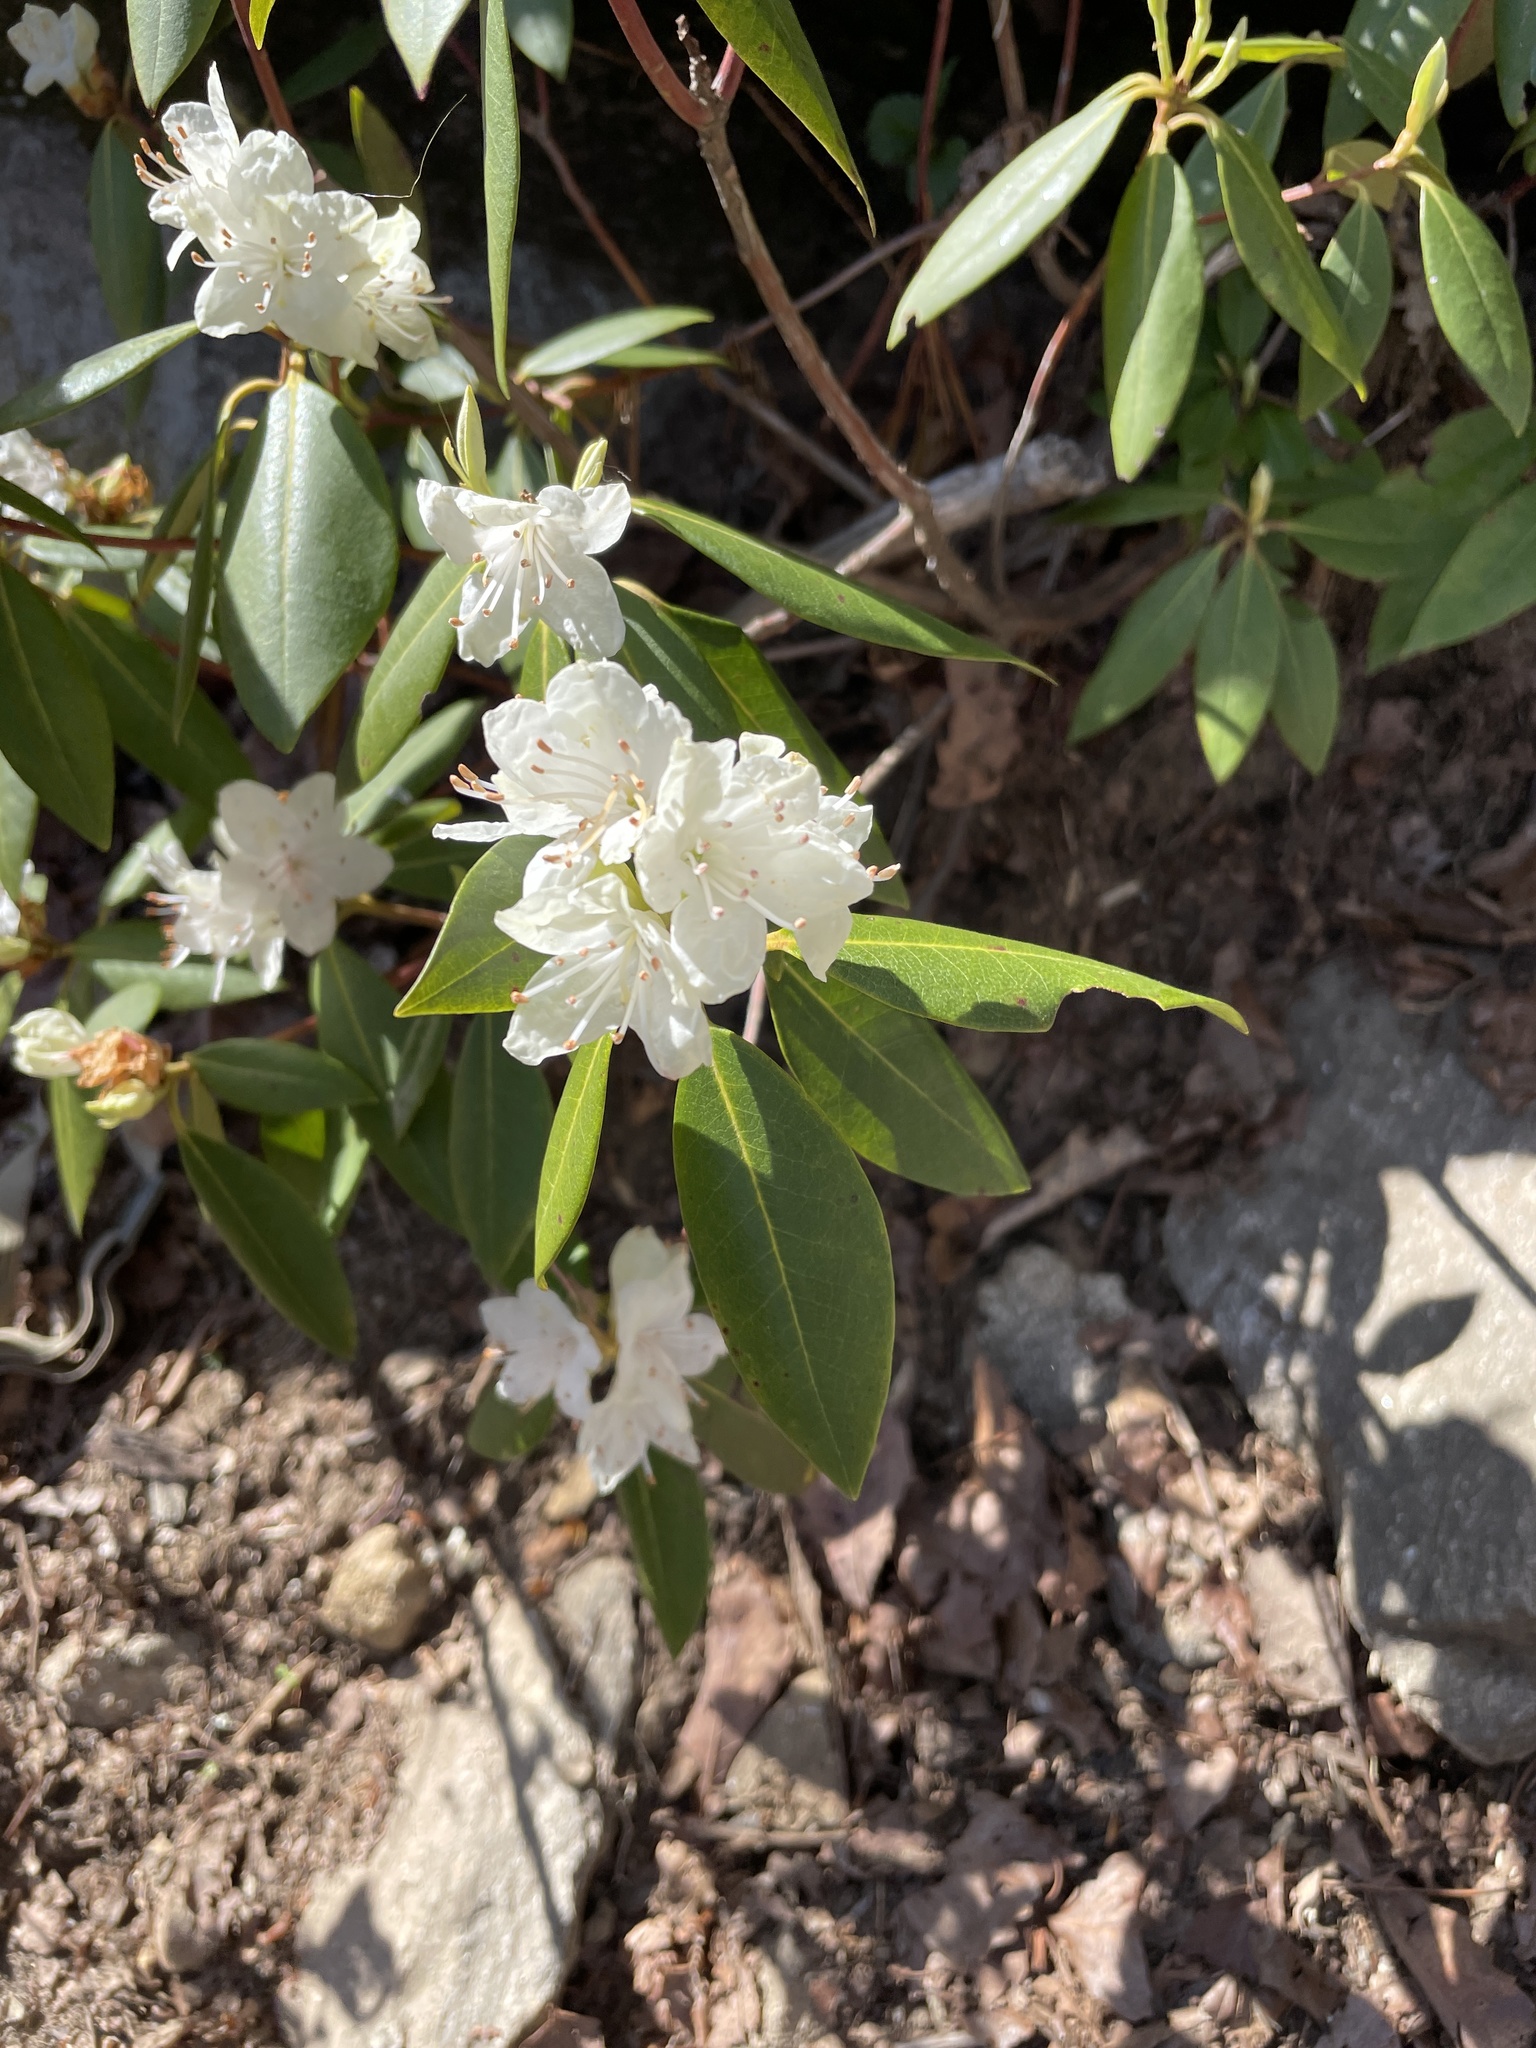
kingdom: Plantae
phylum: Tracheophyta
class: Magnoliopsida
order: Ericales
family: Ericaceae
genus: Rhododendron
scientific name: Rhododendron minus
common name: Piedmont rhododendron
